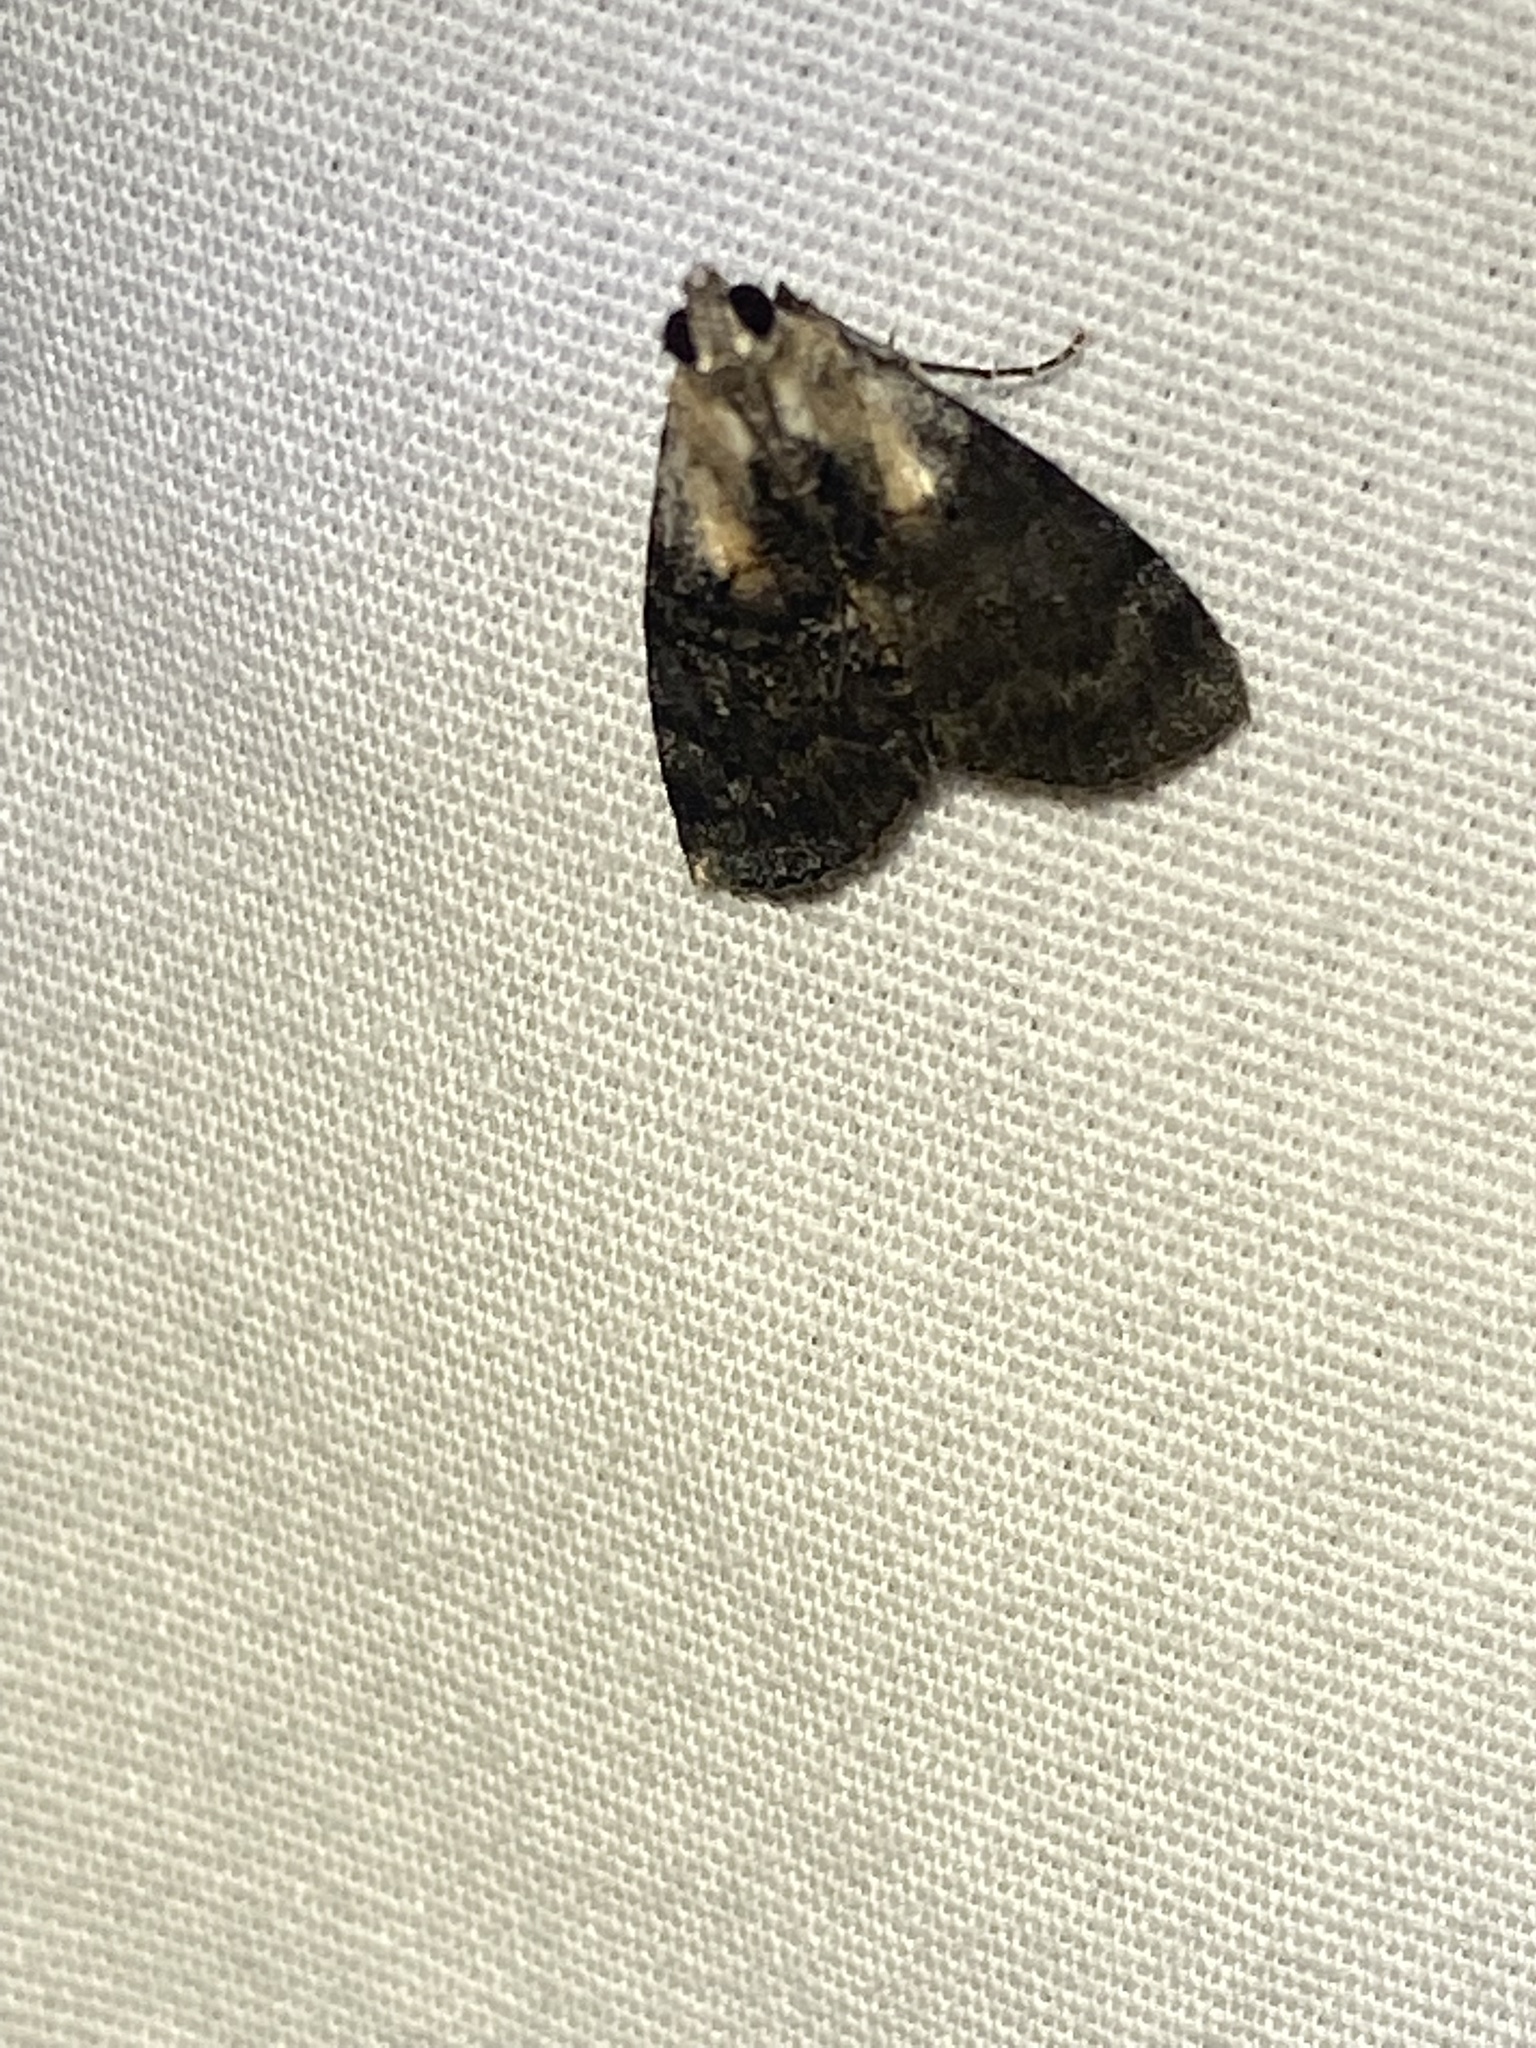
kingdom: Animalia
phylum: Arthropoda
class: Insecta
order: Lepidoptera
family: Pyralidae
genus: Pococera
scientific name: Pococera expandens
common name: Striped oak webworm moth
